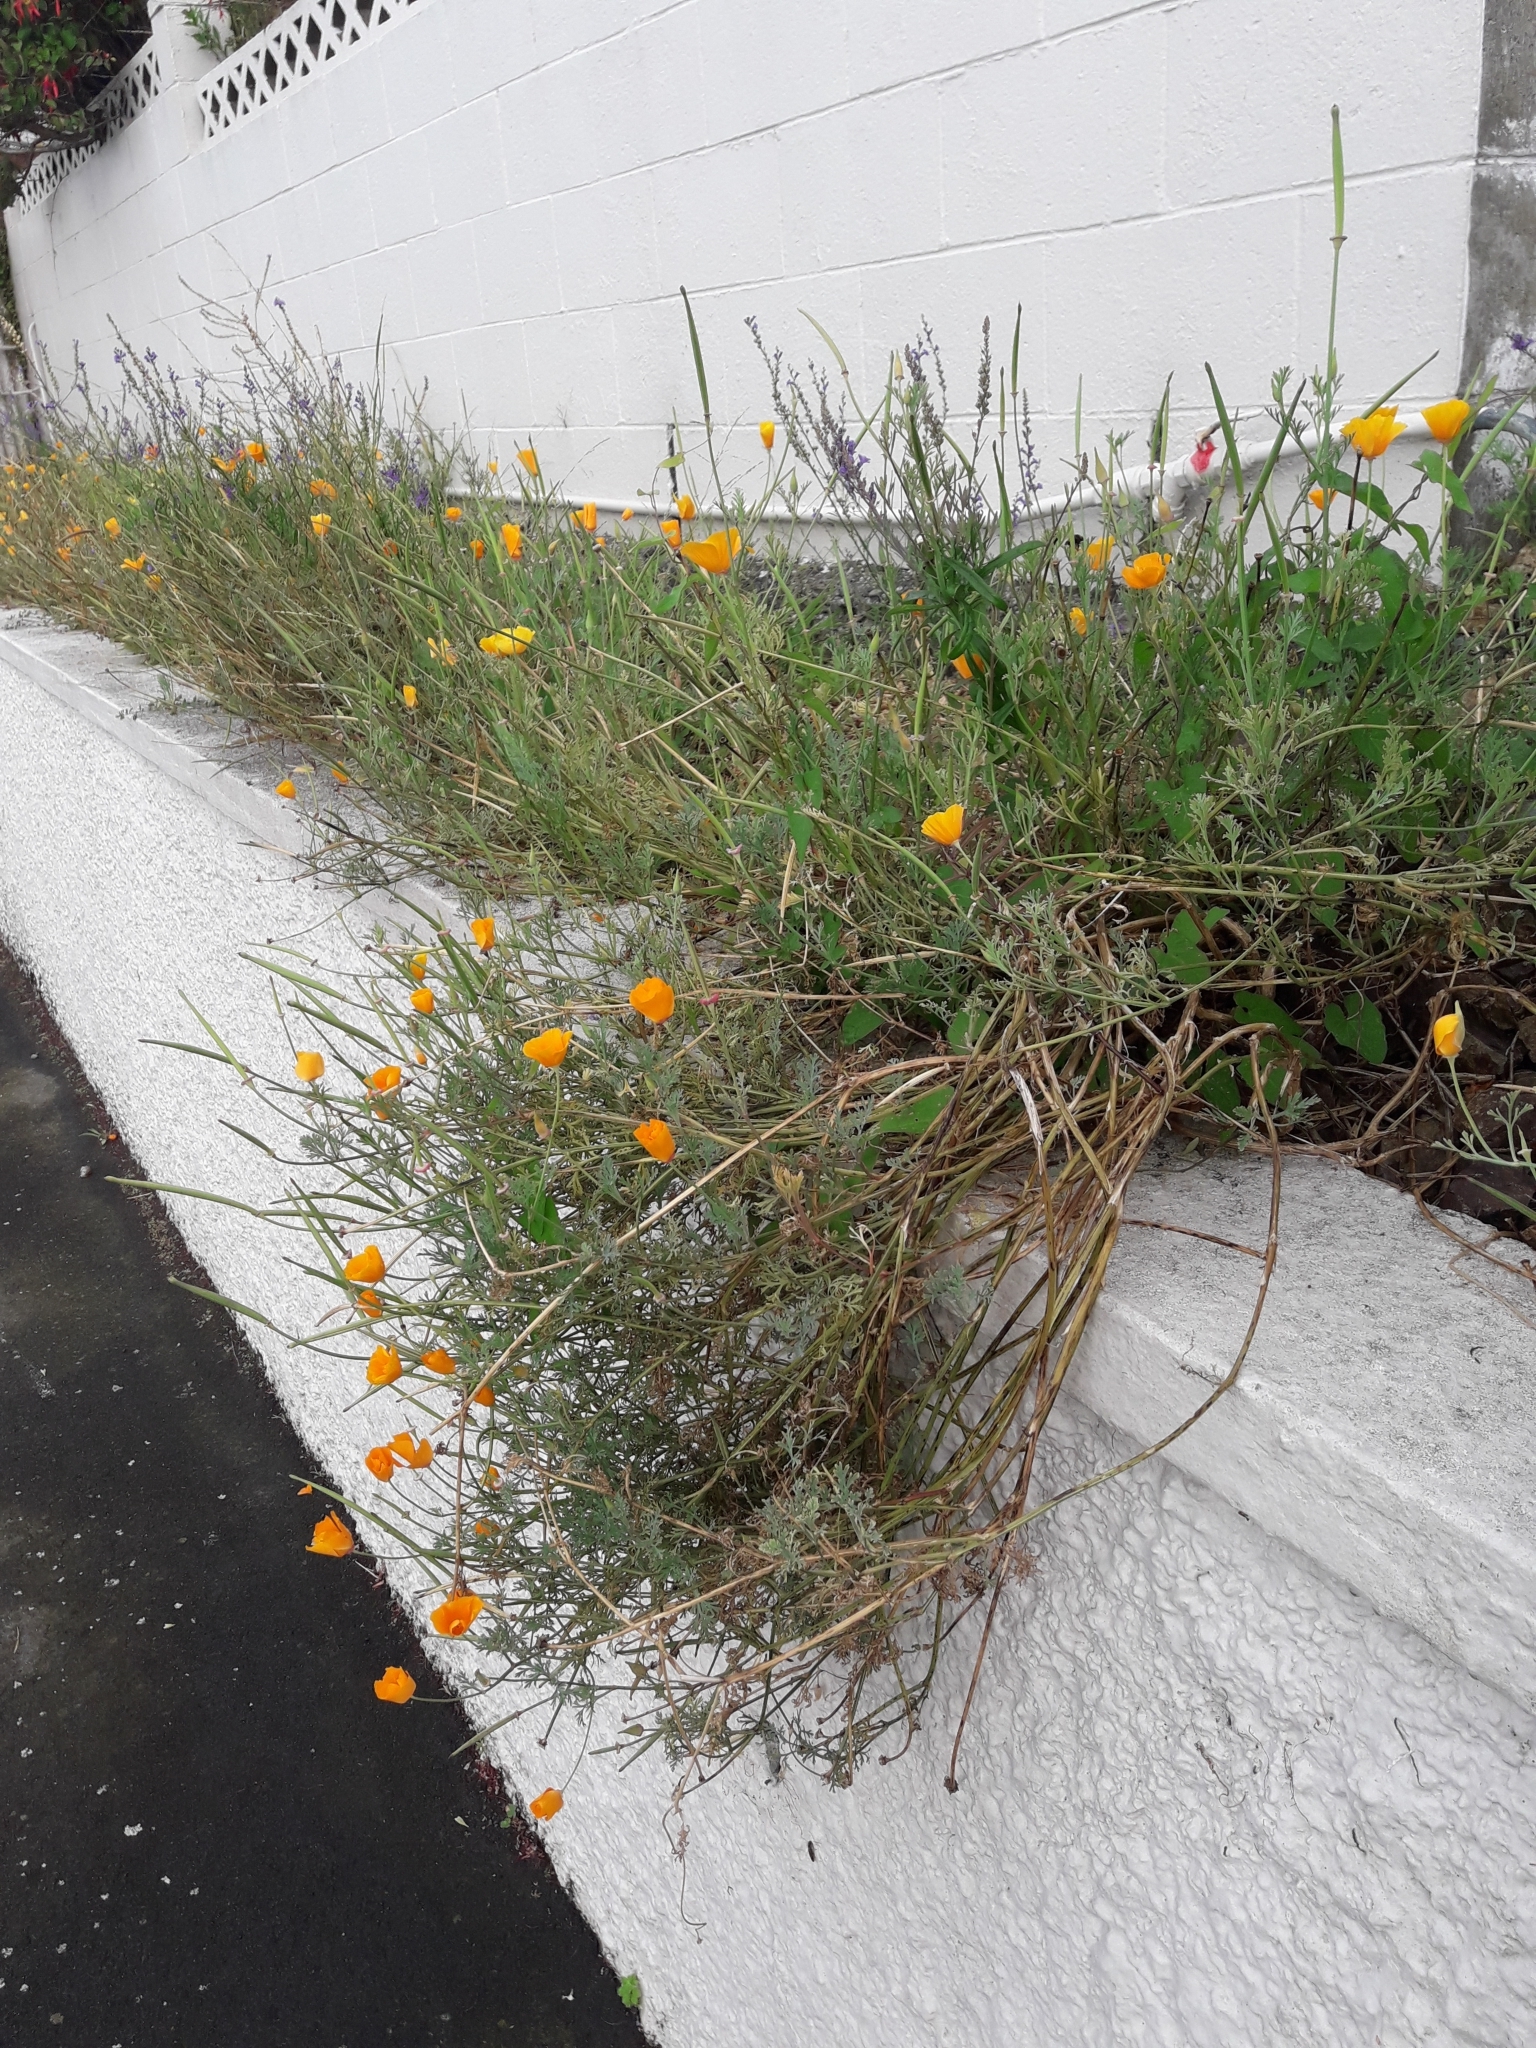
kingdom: Plantae
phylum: Tracheophyta
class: Magnoliopsida
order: Ranunculales
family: Papaveraceae
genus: Eschscholzia
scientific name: Eschscholzia californica
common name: California poppy
